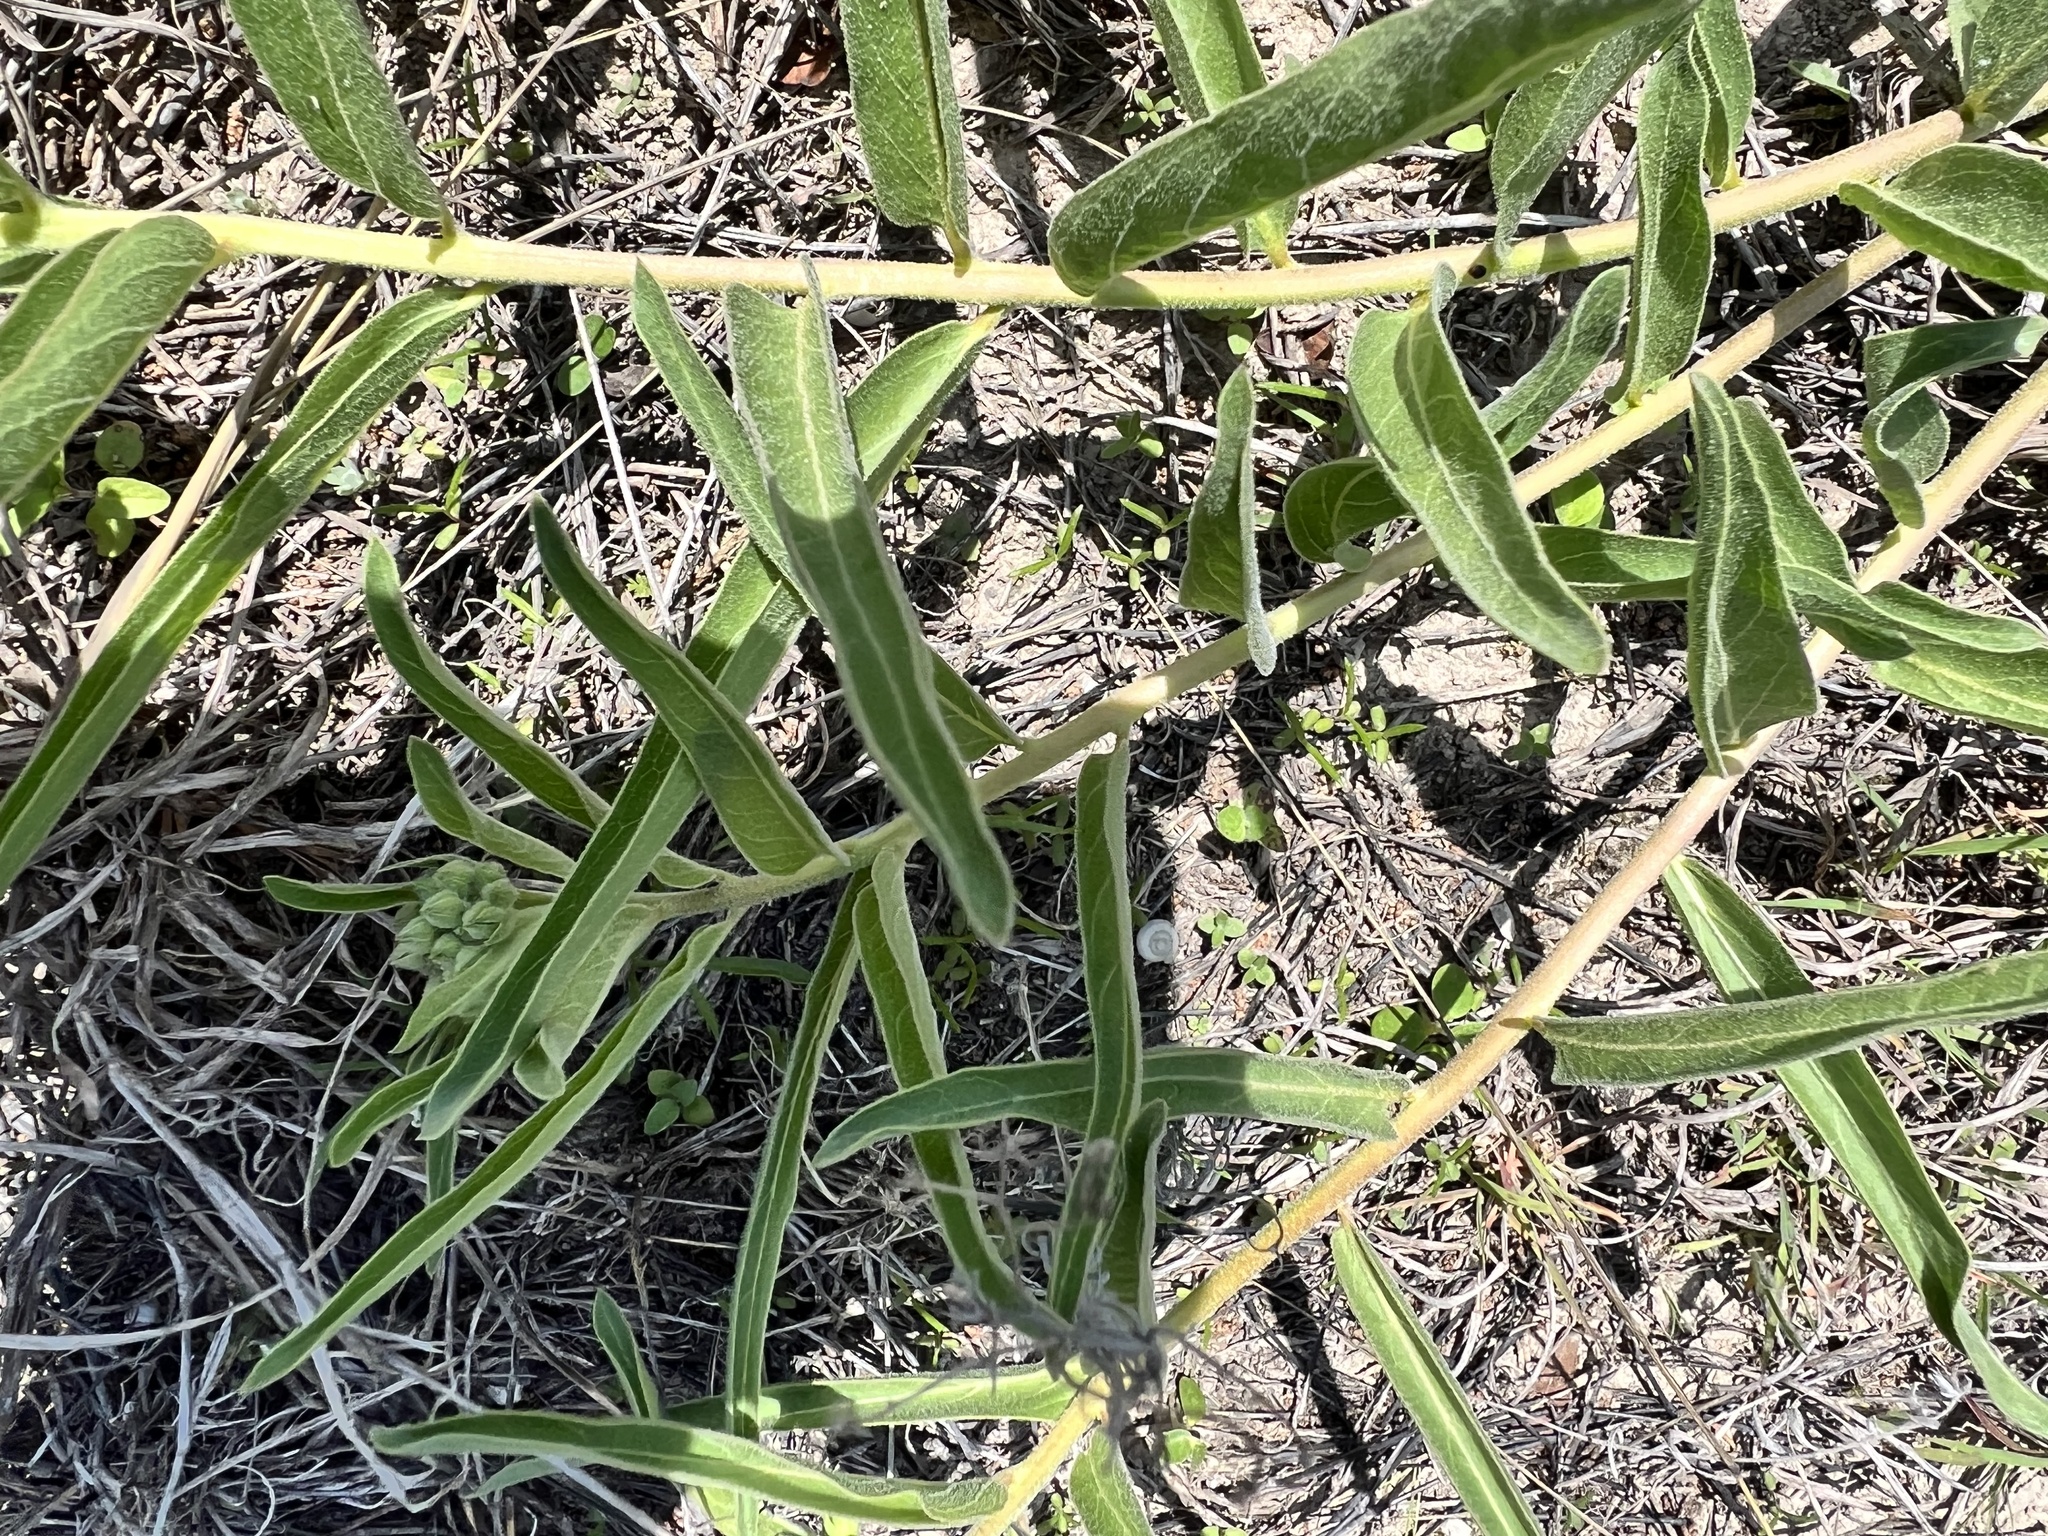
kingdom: Plantae
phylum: Tracheophyta
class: Magnoliopsida
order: Gentianales
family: Apocynaceae
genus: Asclepias
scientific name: Asclepias asperula
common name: Antelope horns
